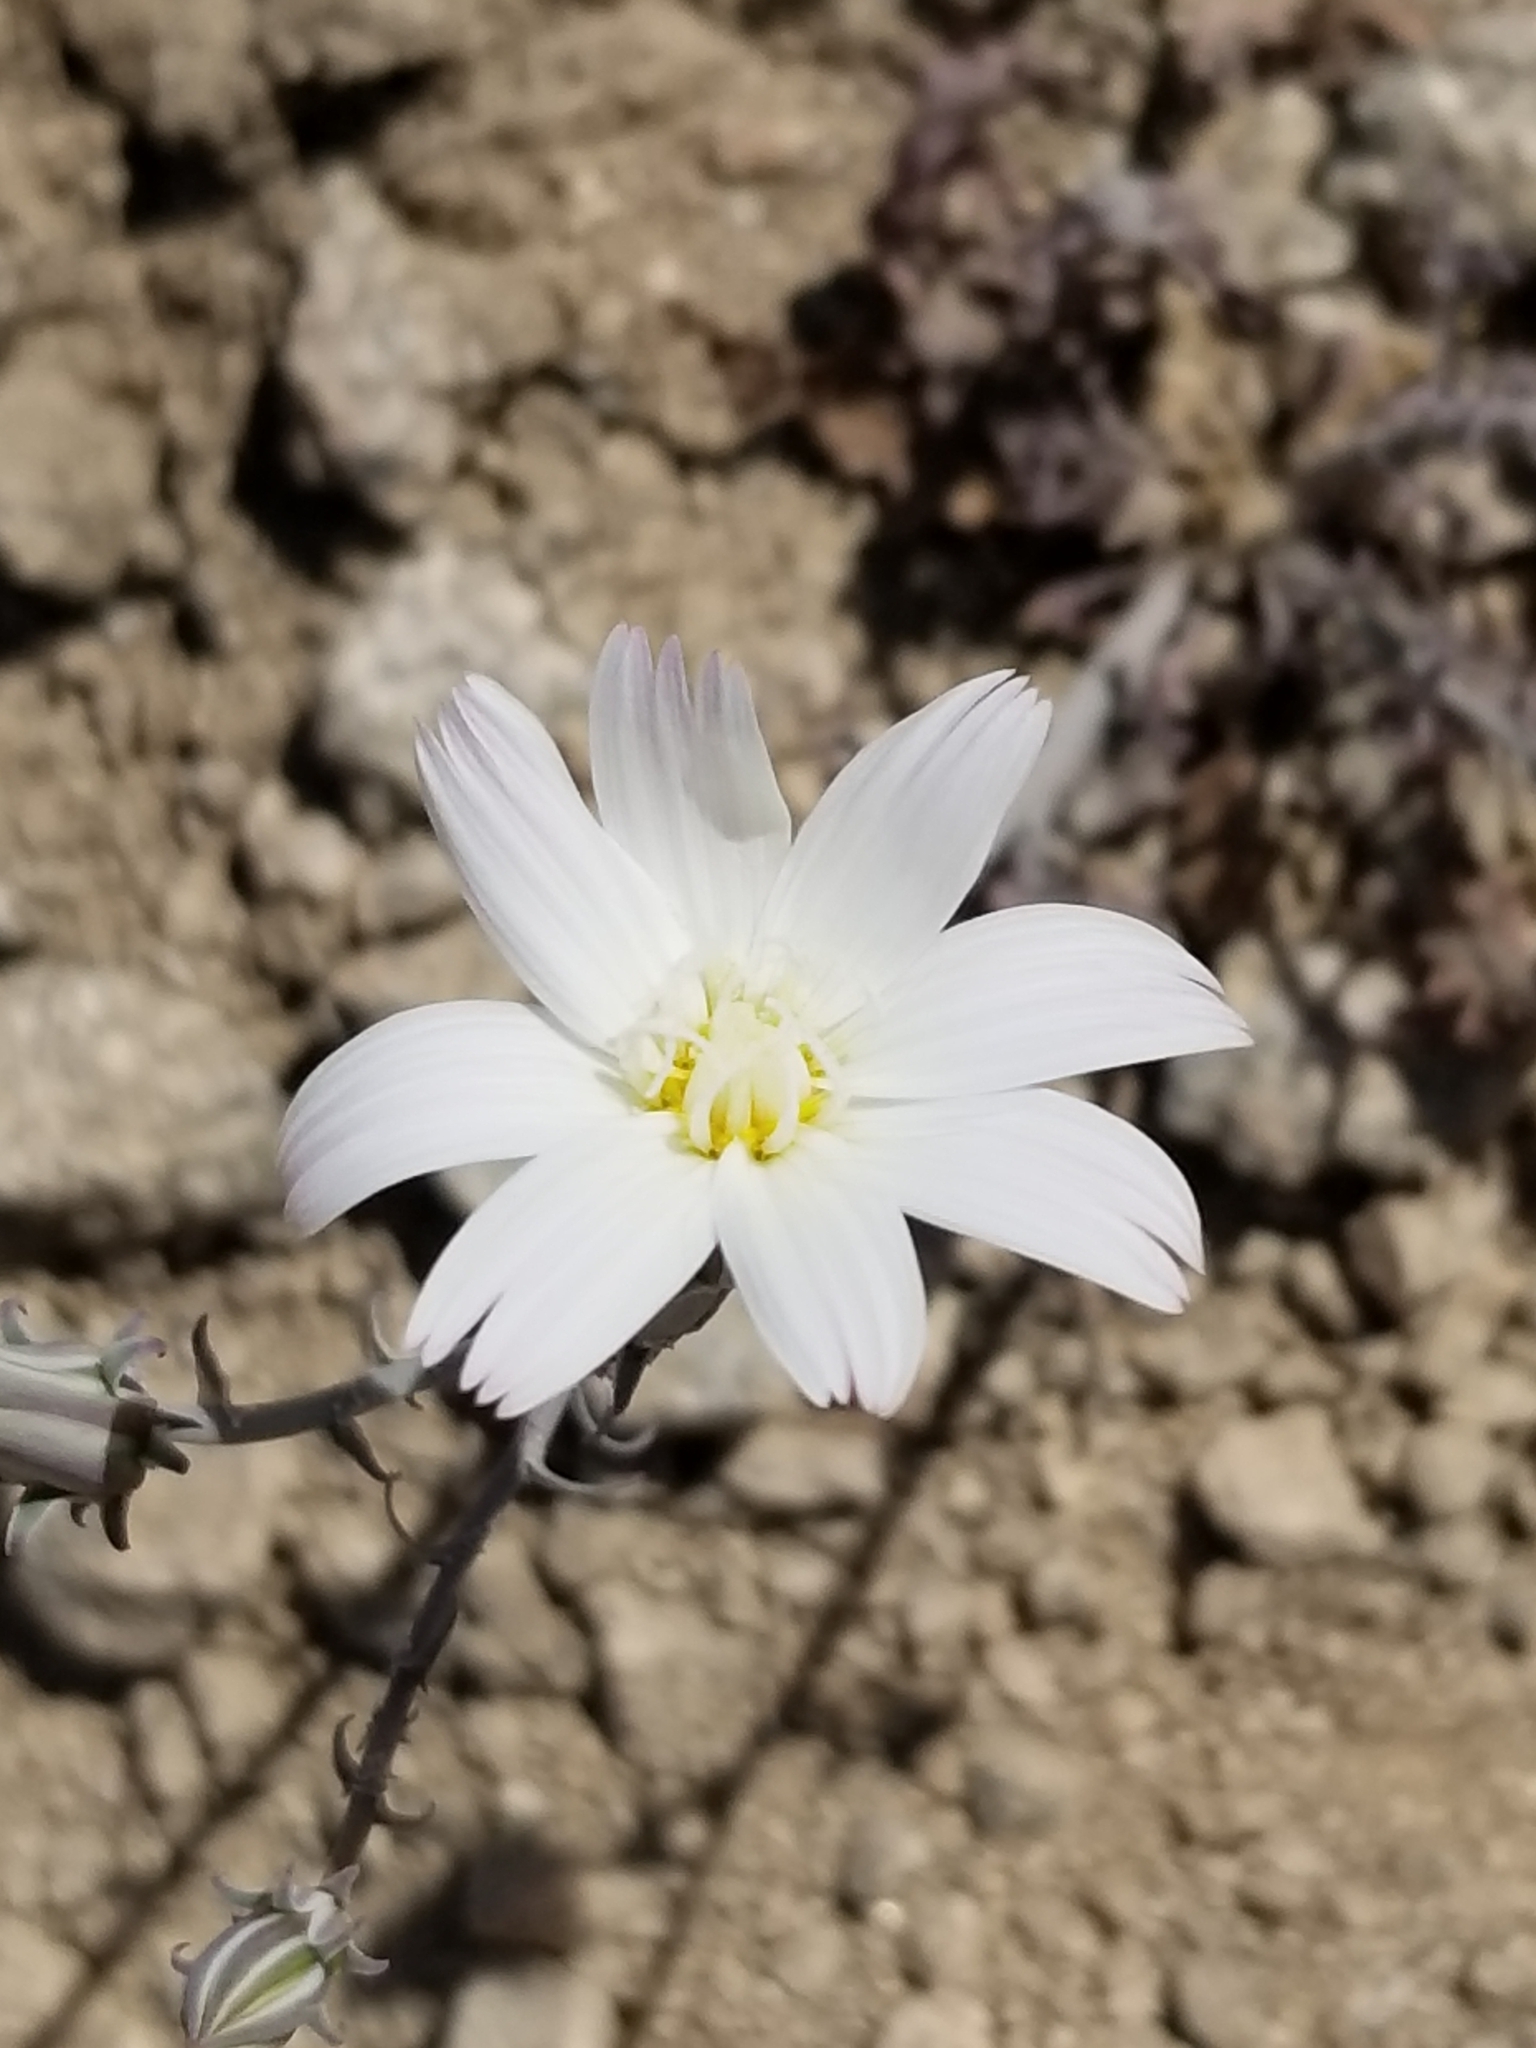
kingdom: Plantae
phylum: Tracheophyta
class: Magnoliopsida
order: Asterales
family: Asteraceae
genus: Rafinesquia
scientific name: Rafinesquia neomexicana
